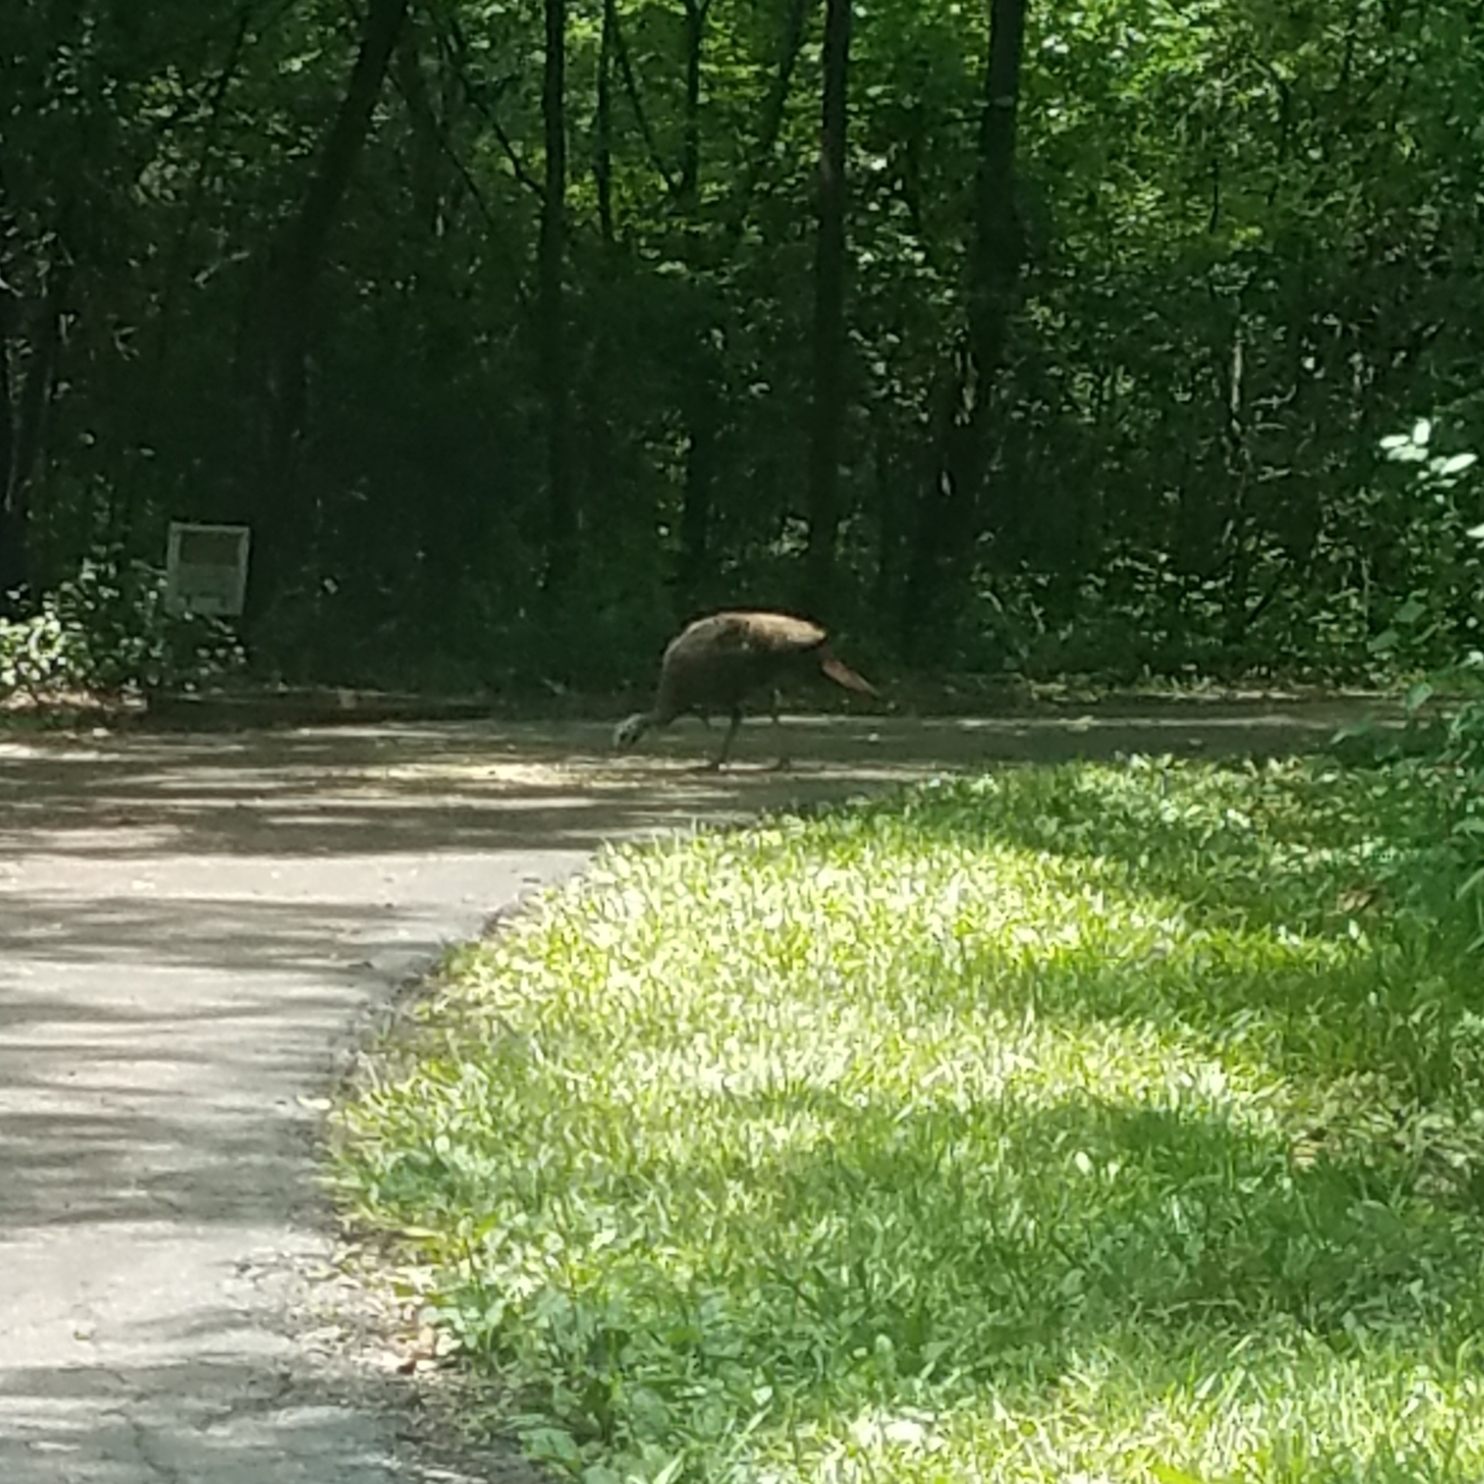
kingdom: Animalia
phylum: Chordata
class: Aves
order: Galliformes
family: Phasianidae
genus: Meleagris
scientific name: Meleagris gallopavo
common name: Wild turkey
